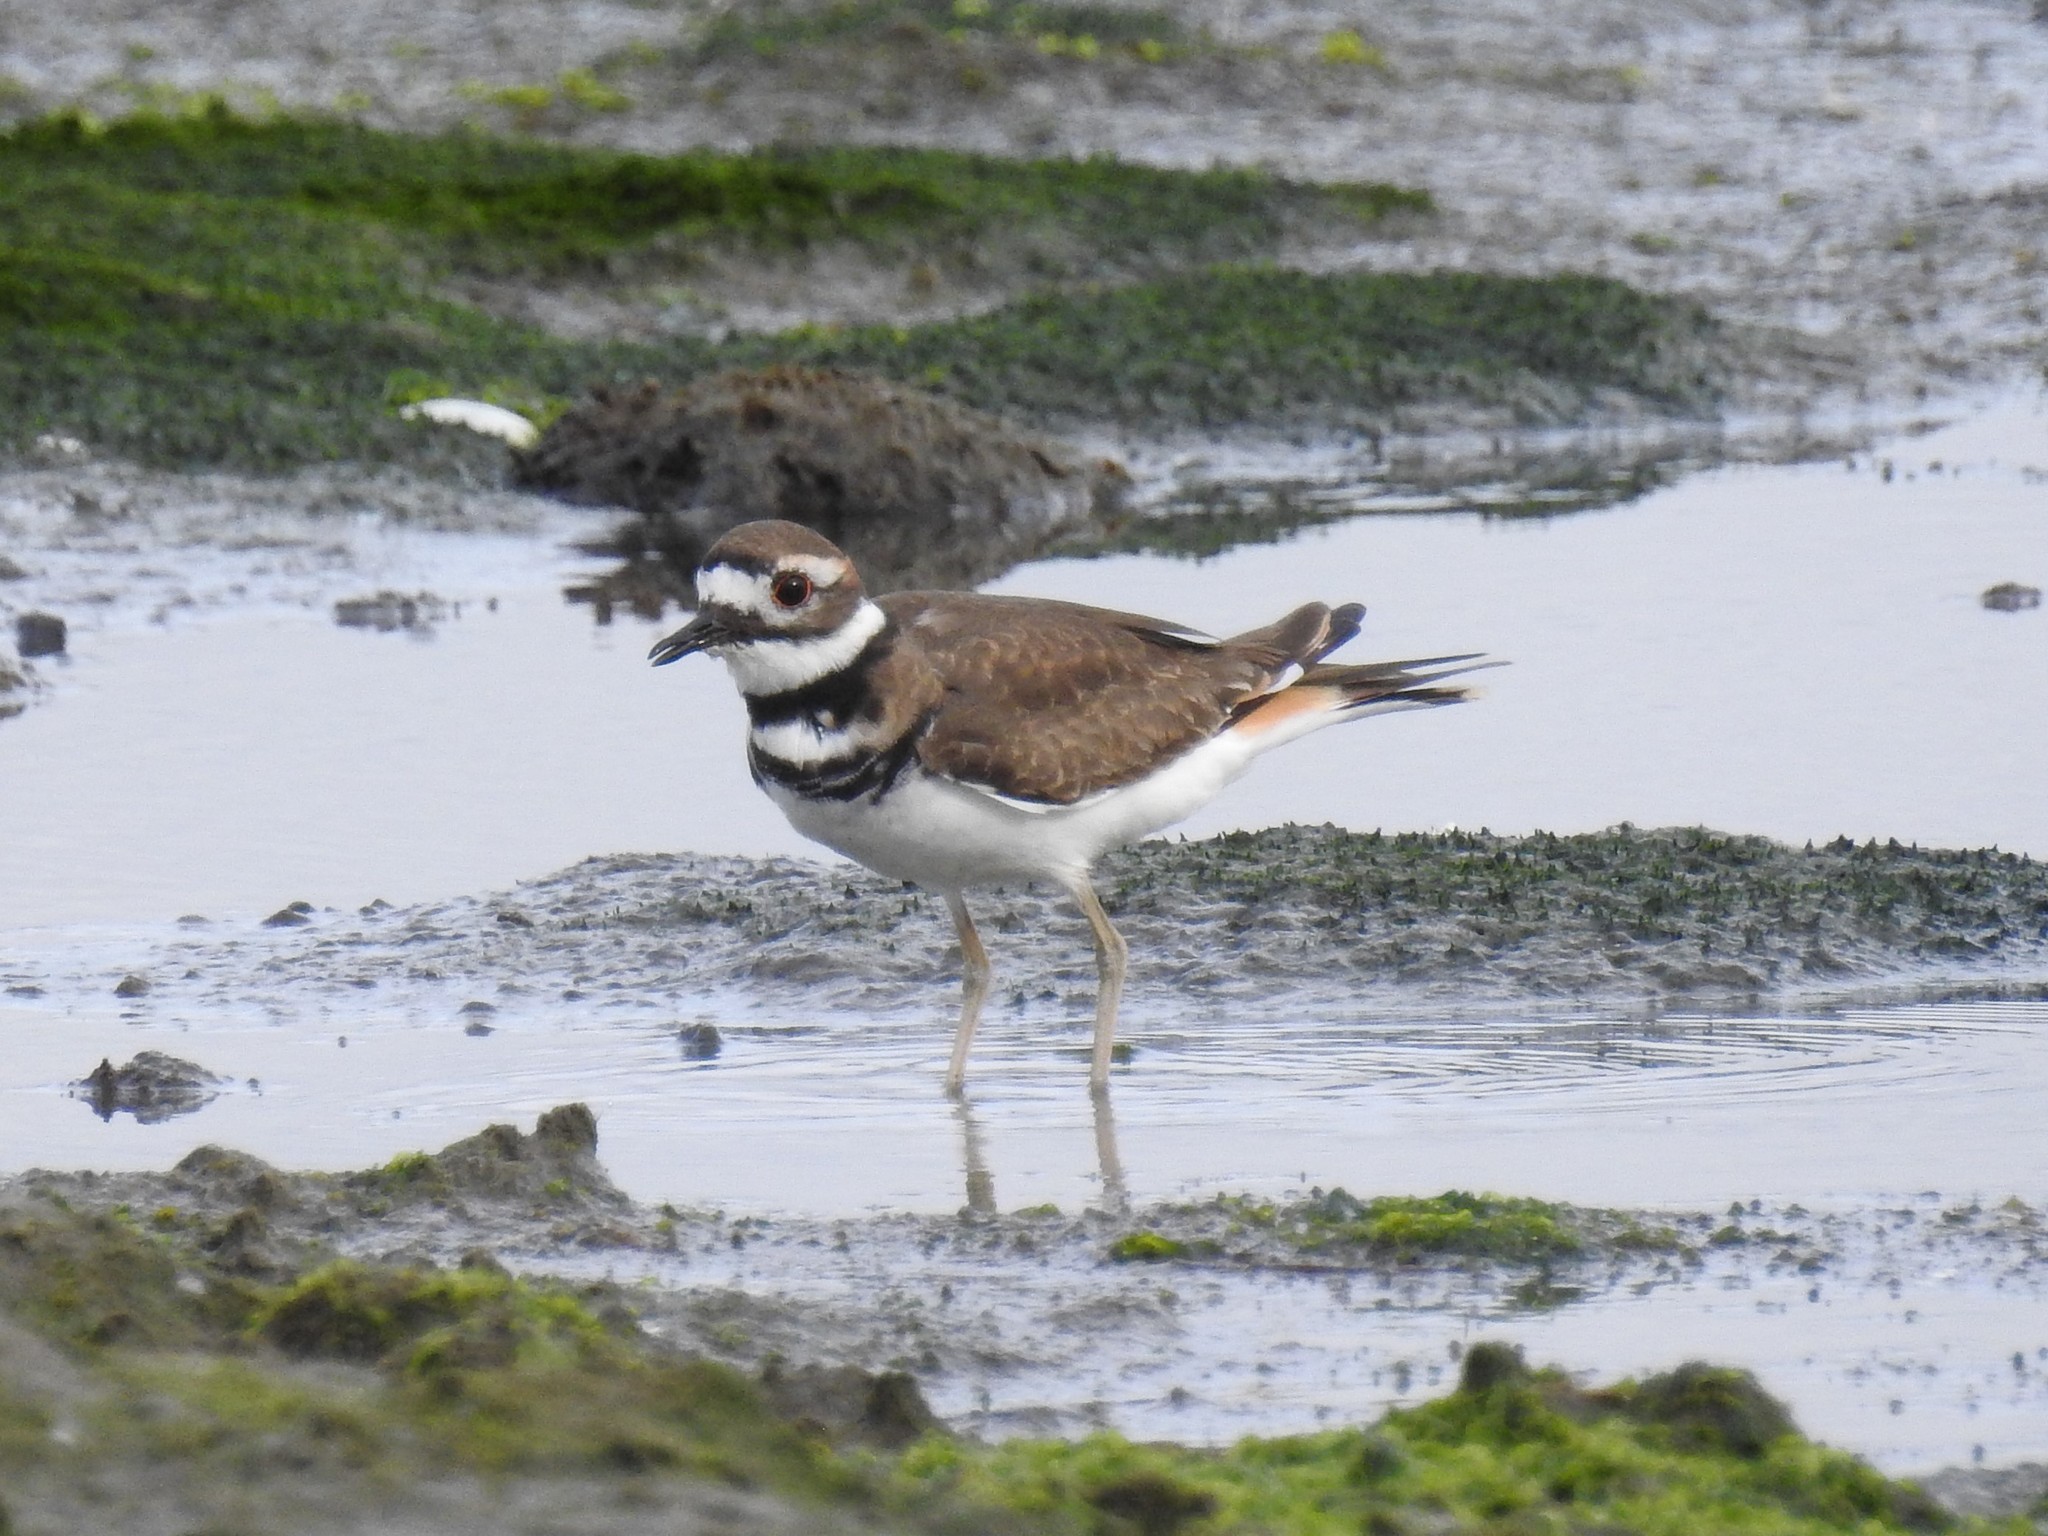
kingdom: Animalia
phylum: Chordata
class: Aves
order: Charadriiformes
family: Charadriidae
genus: Charadrius
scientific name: Charadrius vociferus
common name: Killdeer
